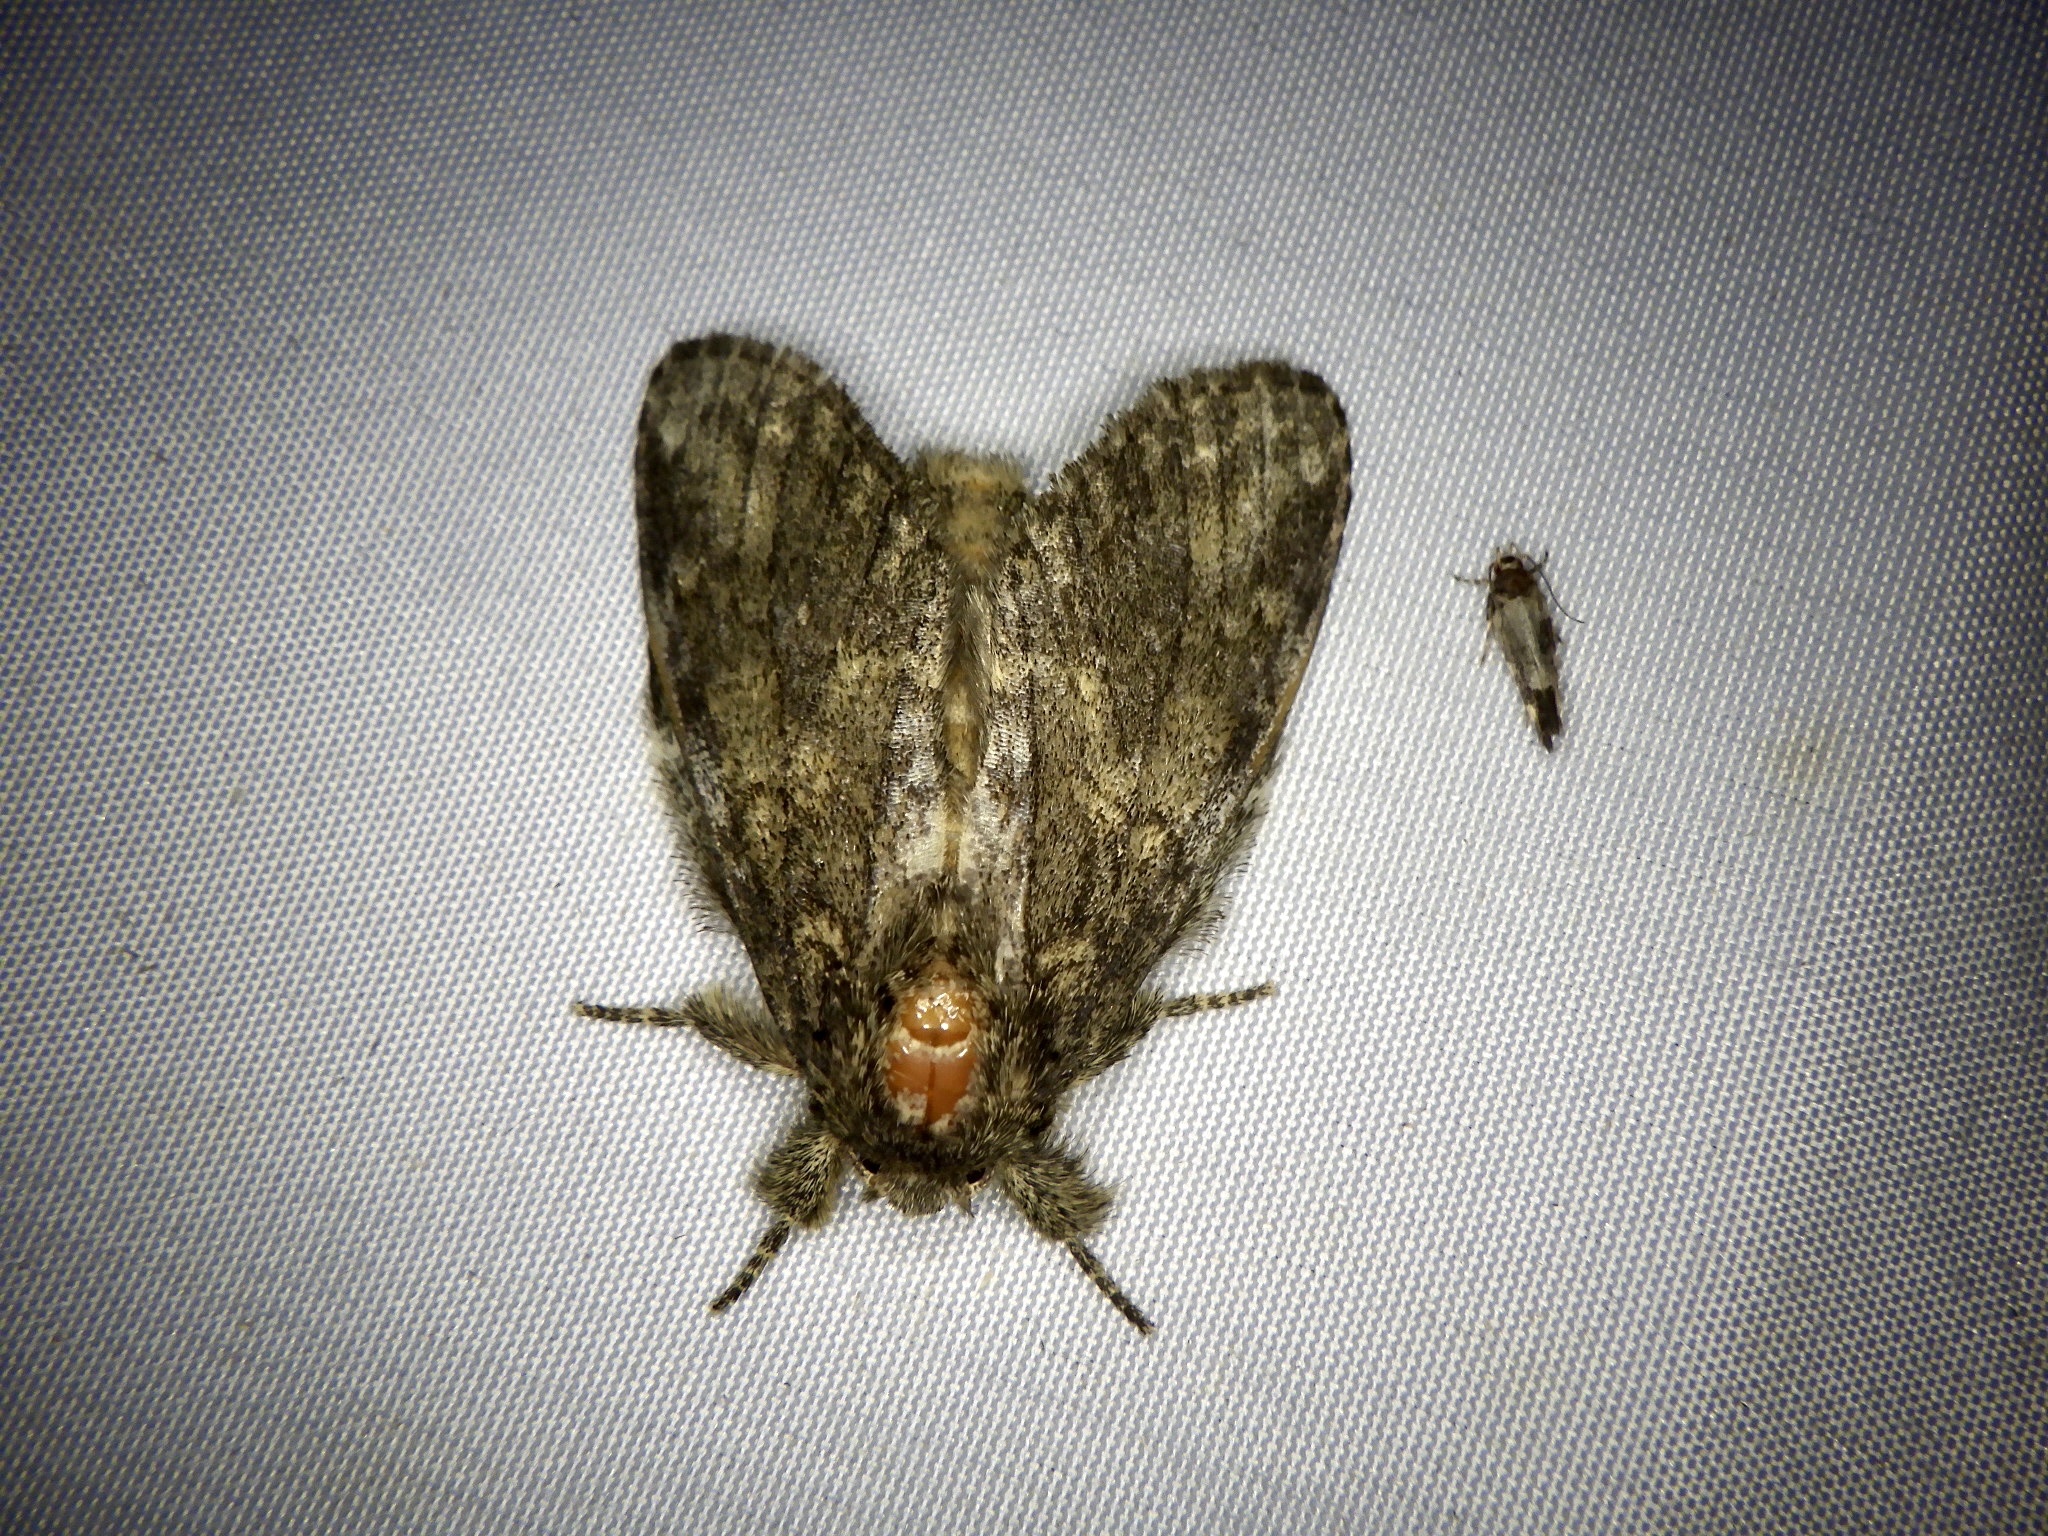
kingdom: Animalia
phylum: Arthropoda
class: Insecta
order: Lepidoptera
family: Notodontidae
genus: Peridea
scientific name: Peridea gigantea
